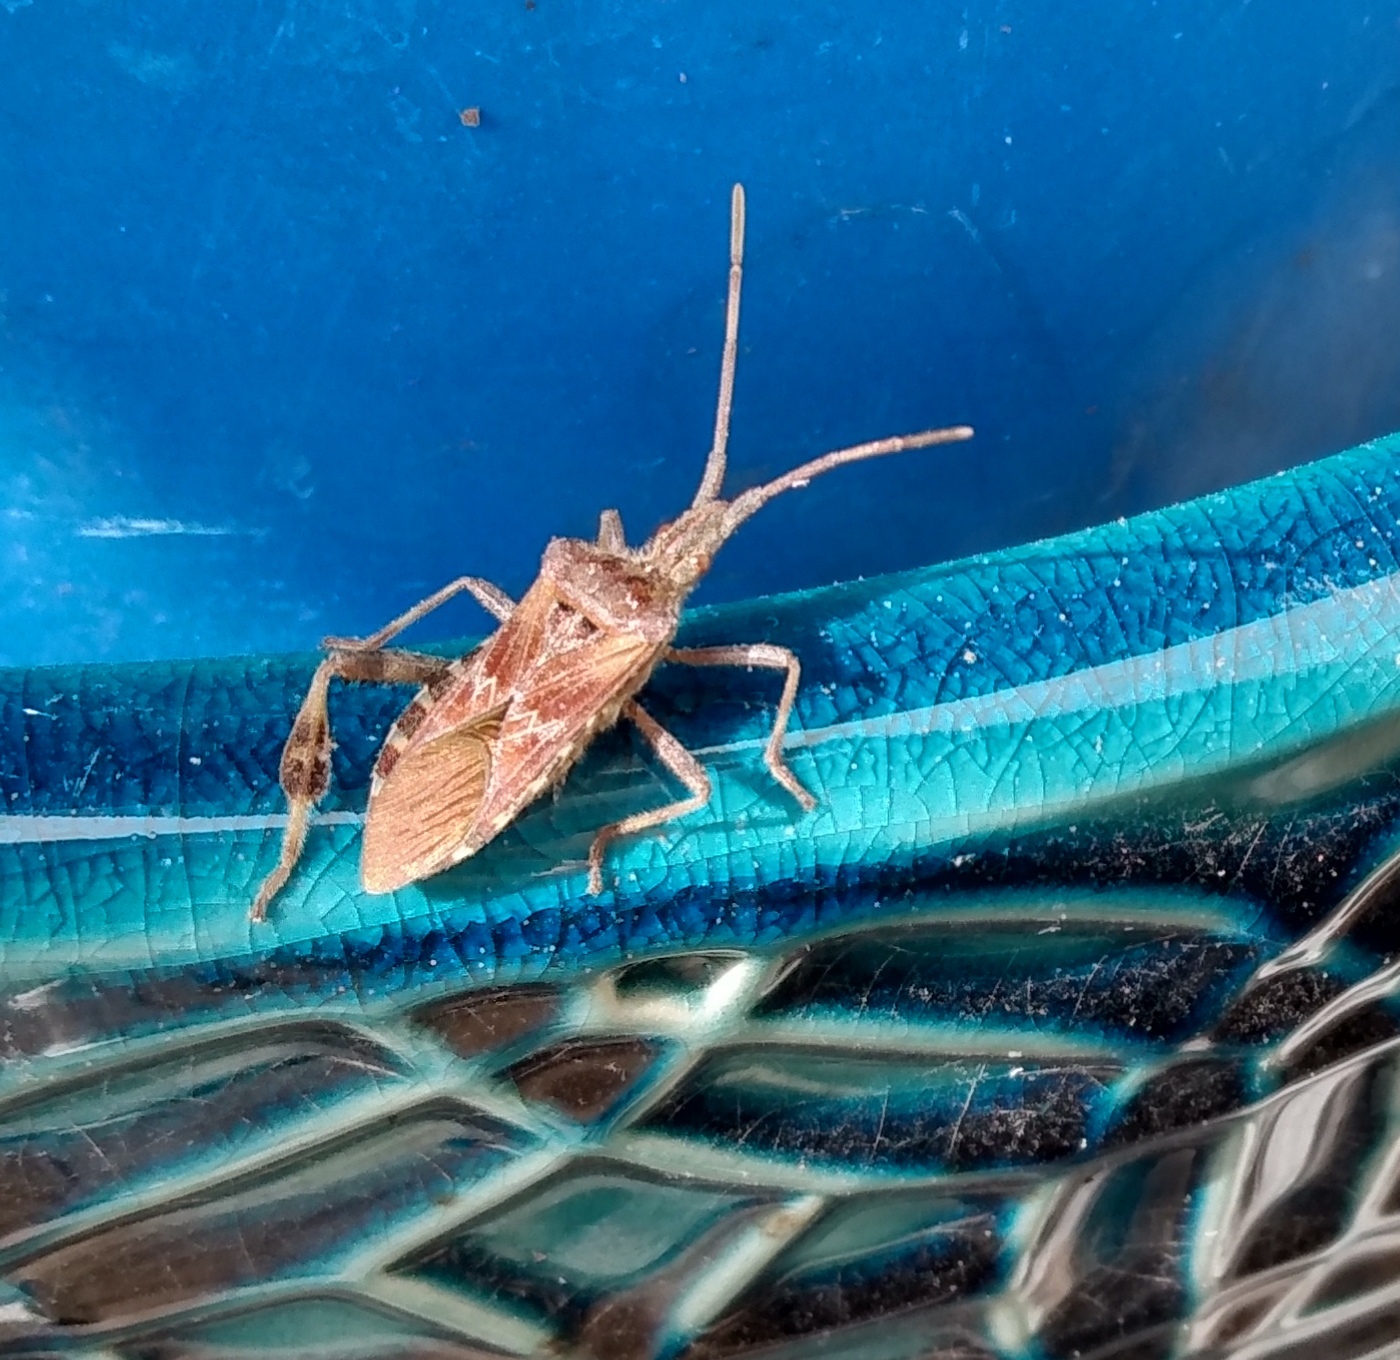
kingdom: Animalia
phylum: Arthropoda
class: Insecta
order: Hemiptera
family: Coreidae
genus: Leptoglossus
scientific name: Leptoglossus occidentalis
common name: Western conifer-seed bug
